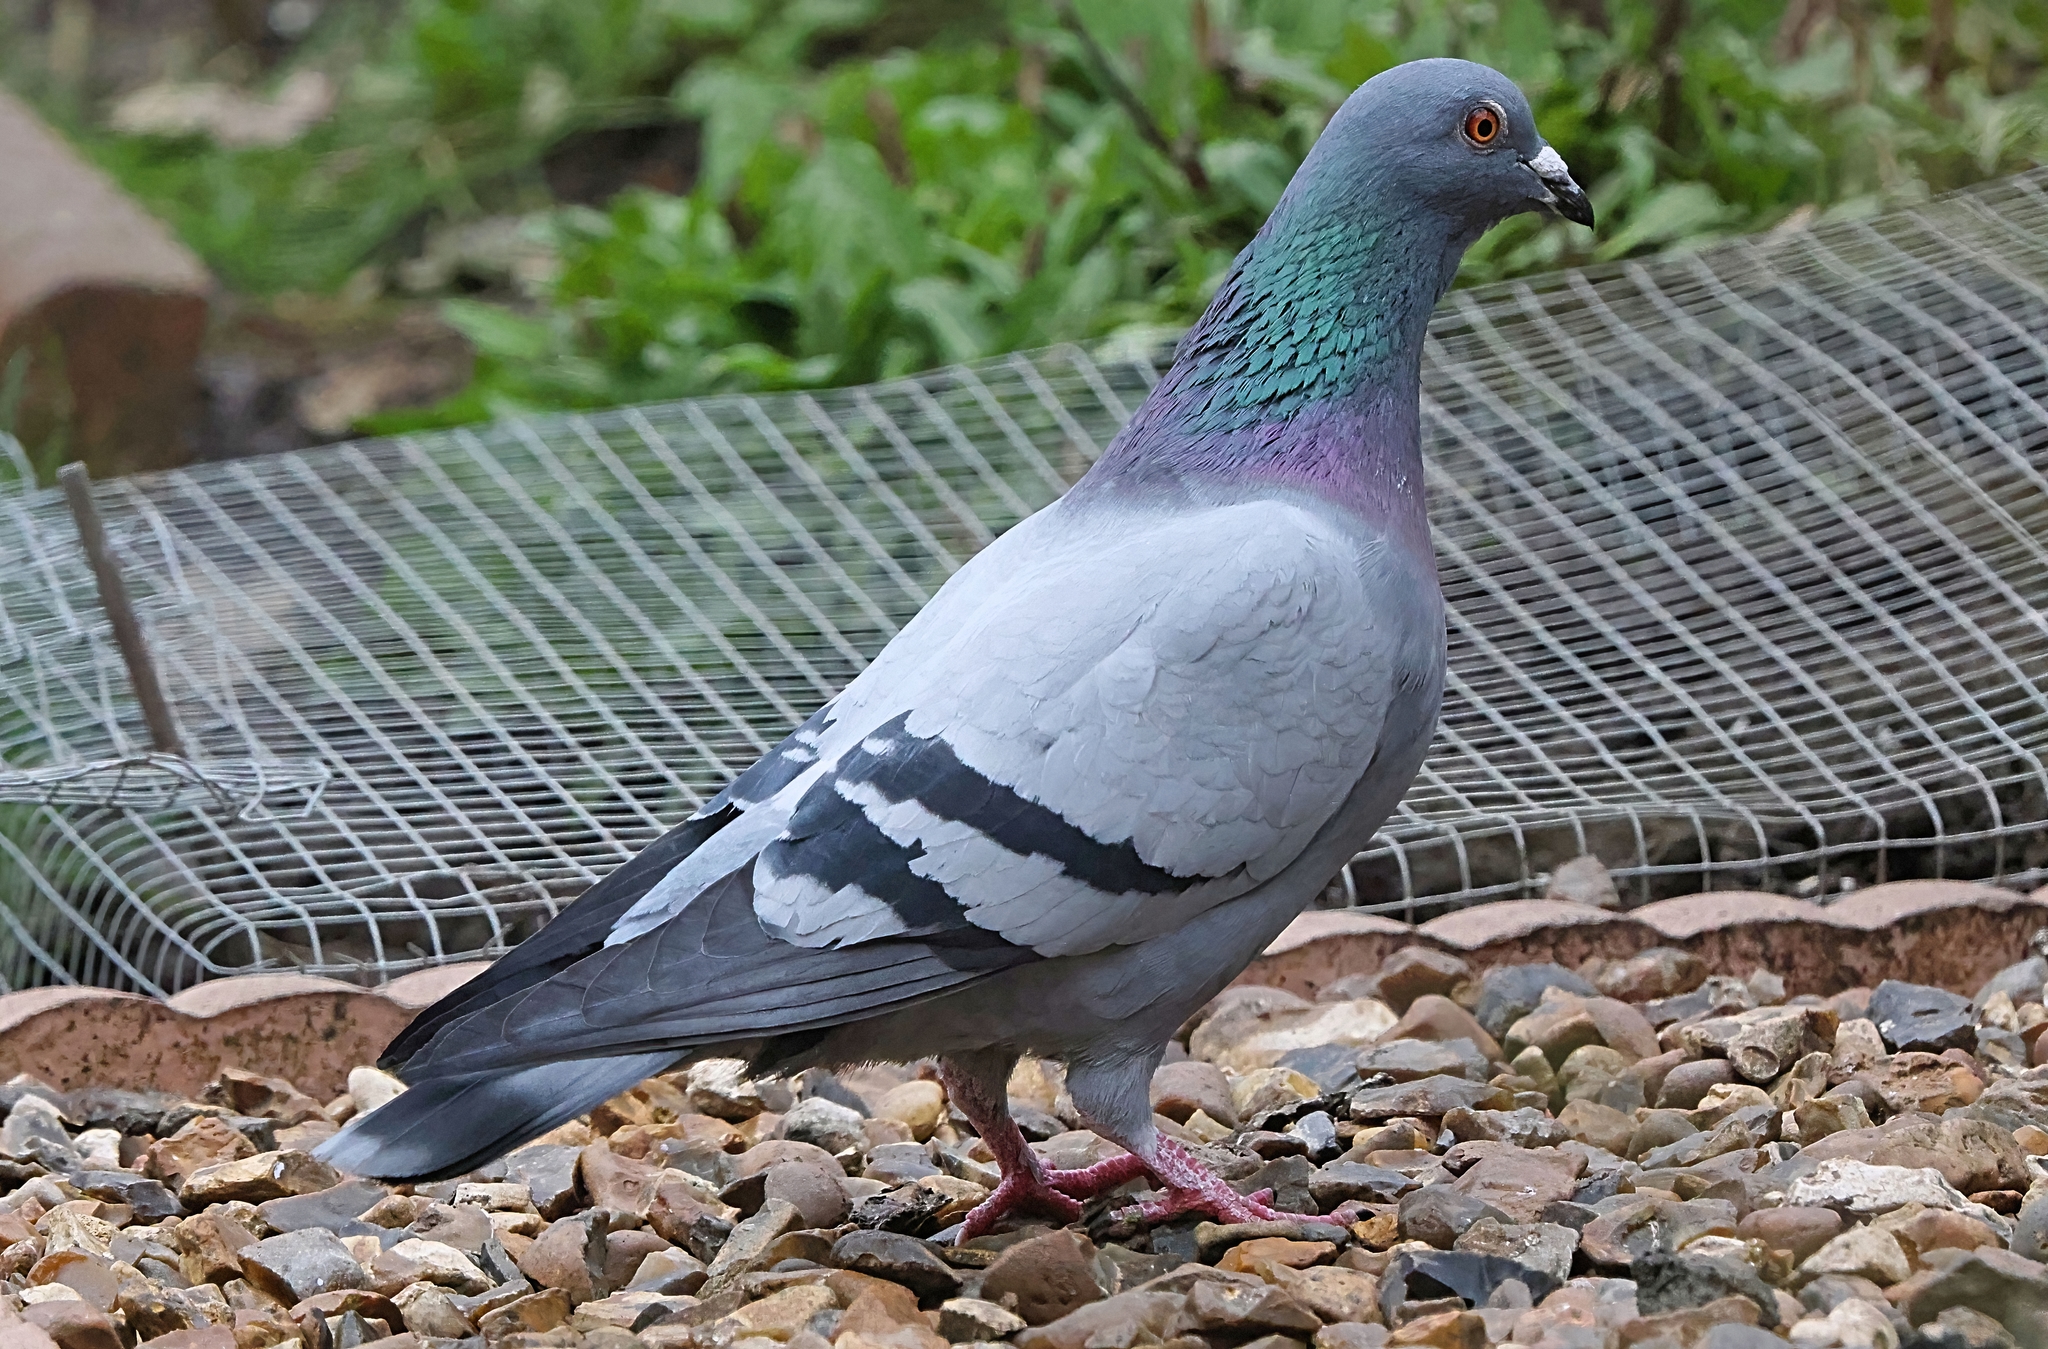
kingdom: Animalia
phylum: Chordata
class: Aves
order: Columbiformes
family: Columbidae
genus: Columba
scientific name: Columba livia
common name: Rock pigeon
